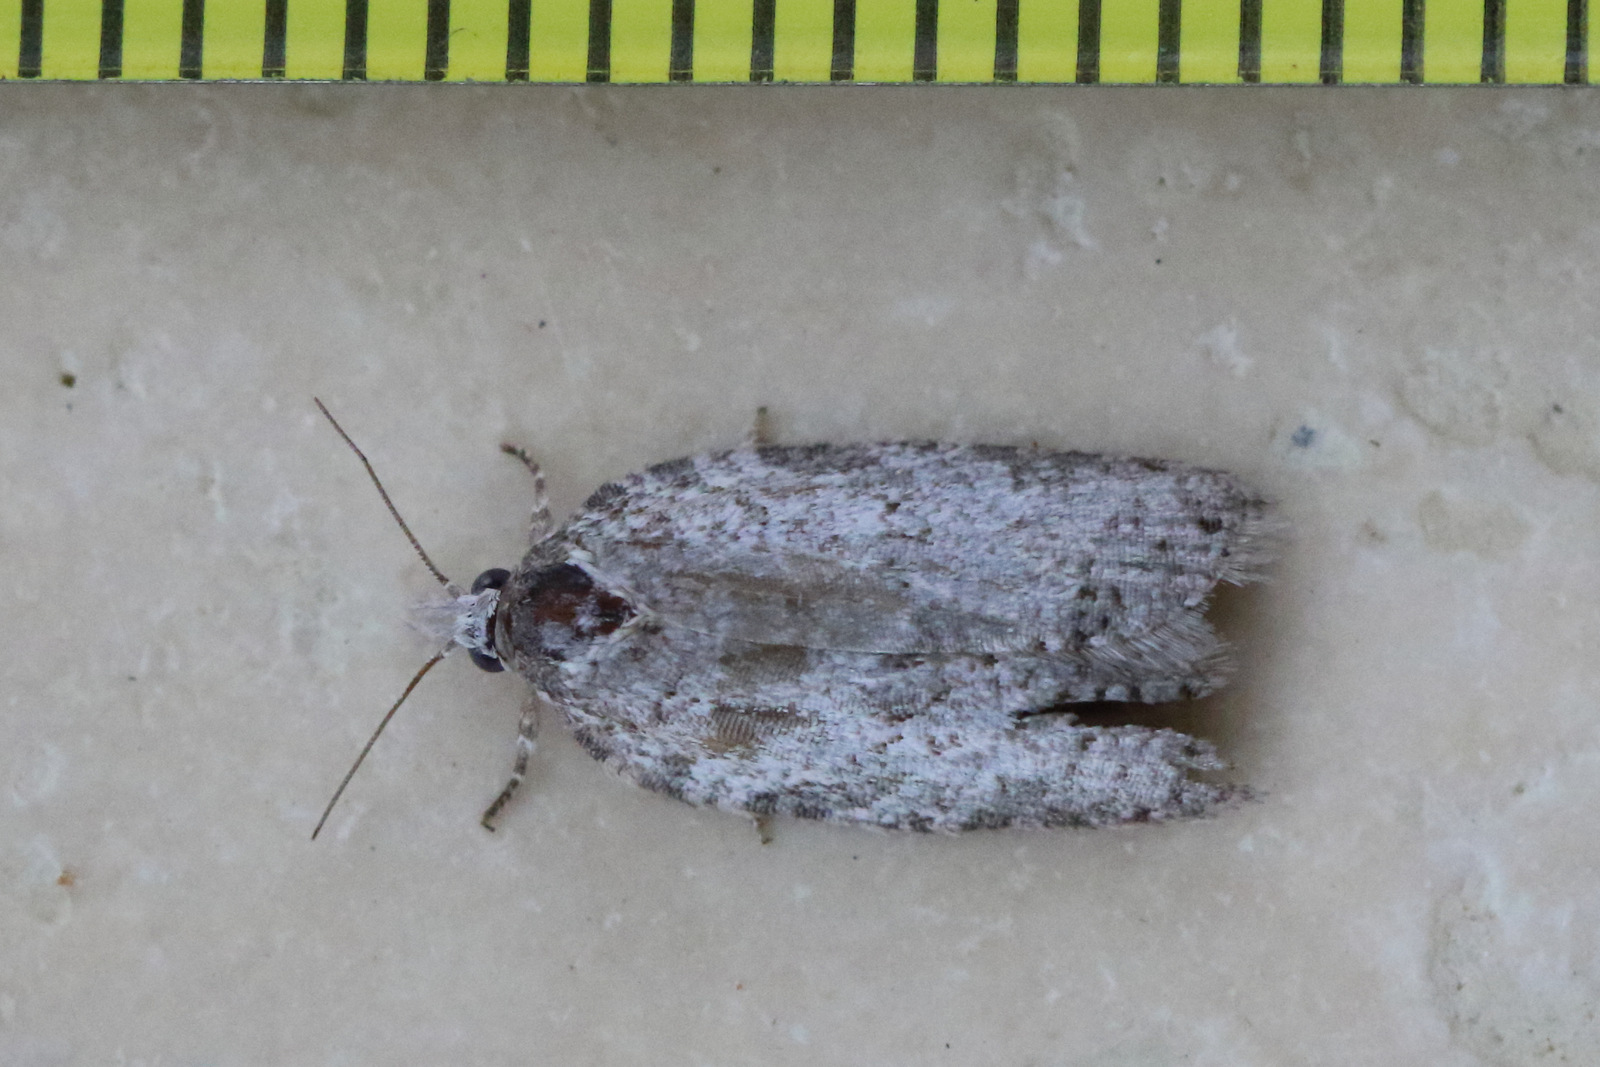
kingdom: Animalia
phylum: Arthropoda
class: Insecta
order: Lepidoptera
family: Tortricidae
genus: Isotenes
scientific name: Isotenes miserana
